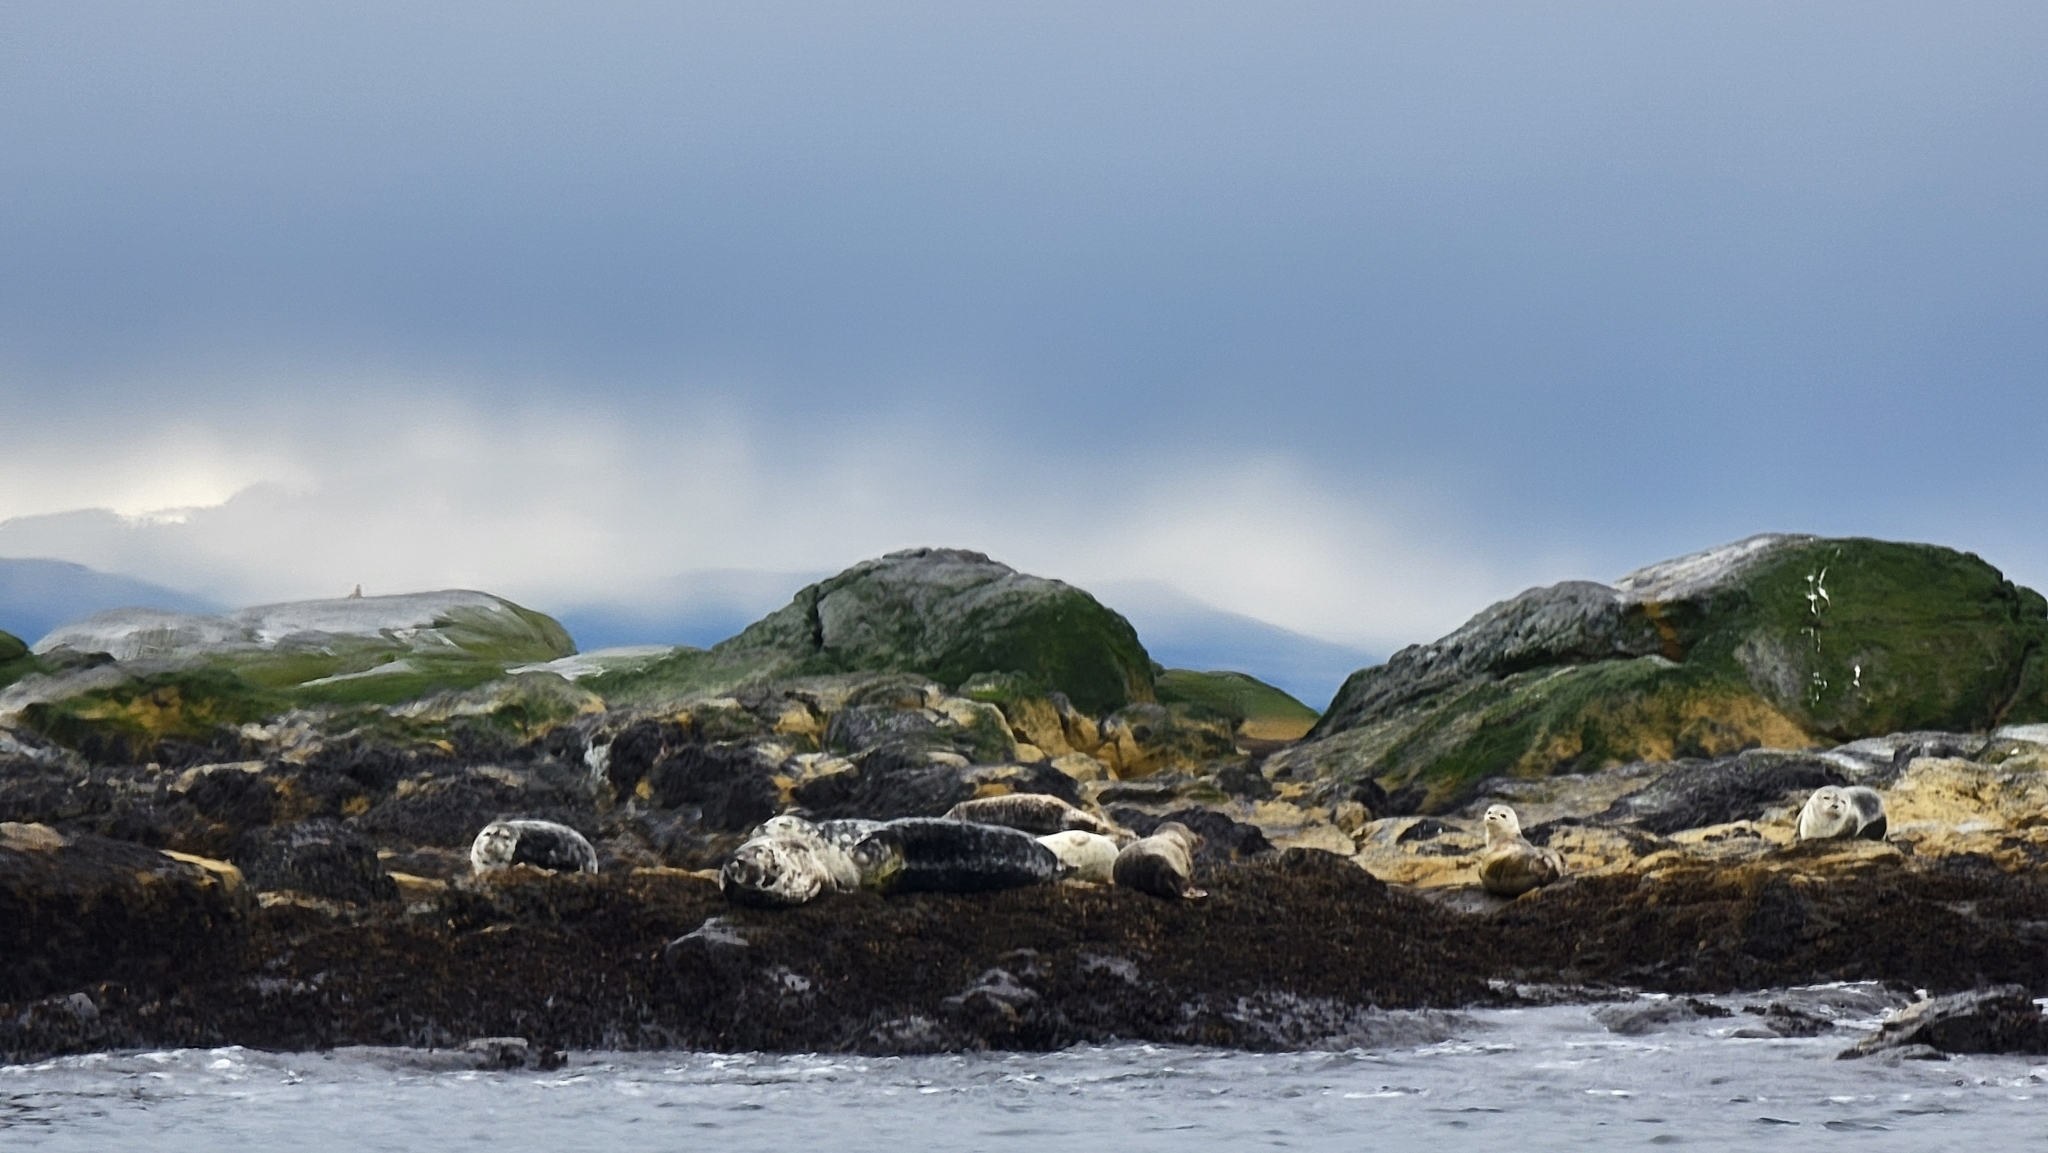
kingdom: Animalia
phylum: Chordata
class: Mammalia
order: Carnivora
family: Phocidae
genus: Phoca
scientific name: Phoca vitulina
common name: Harbor seal
